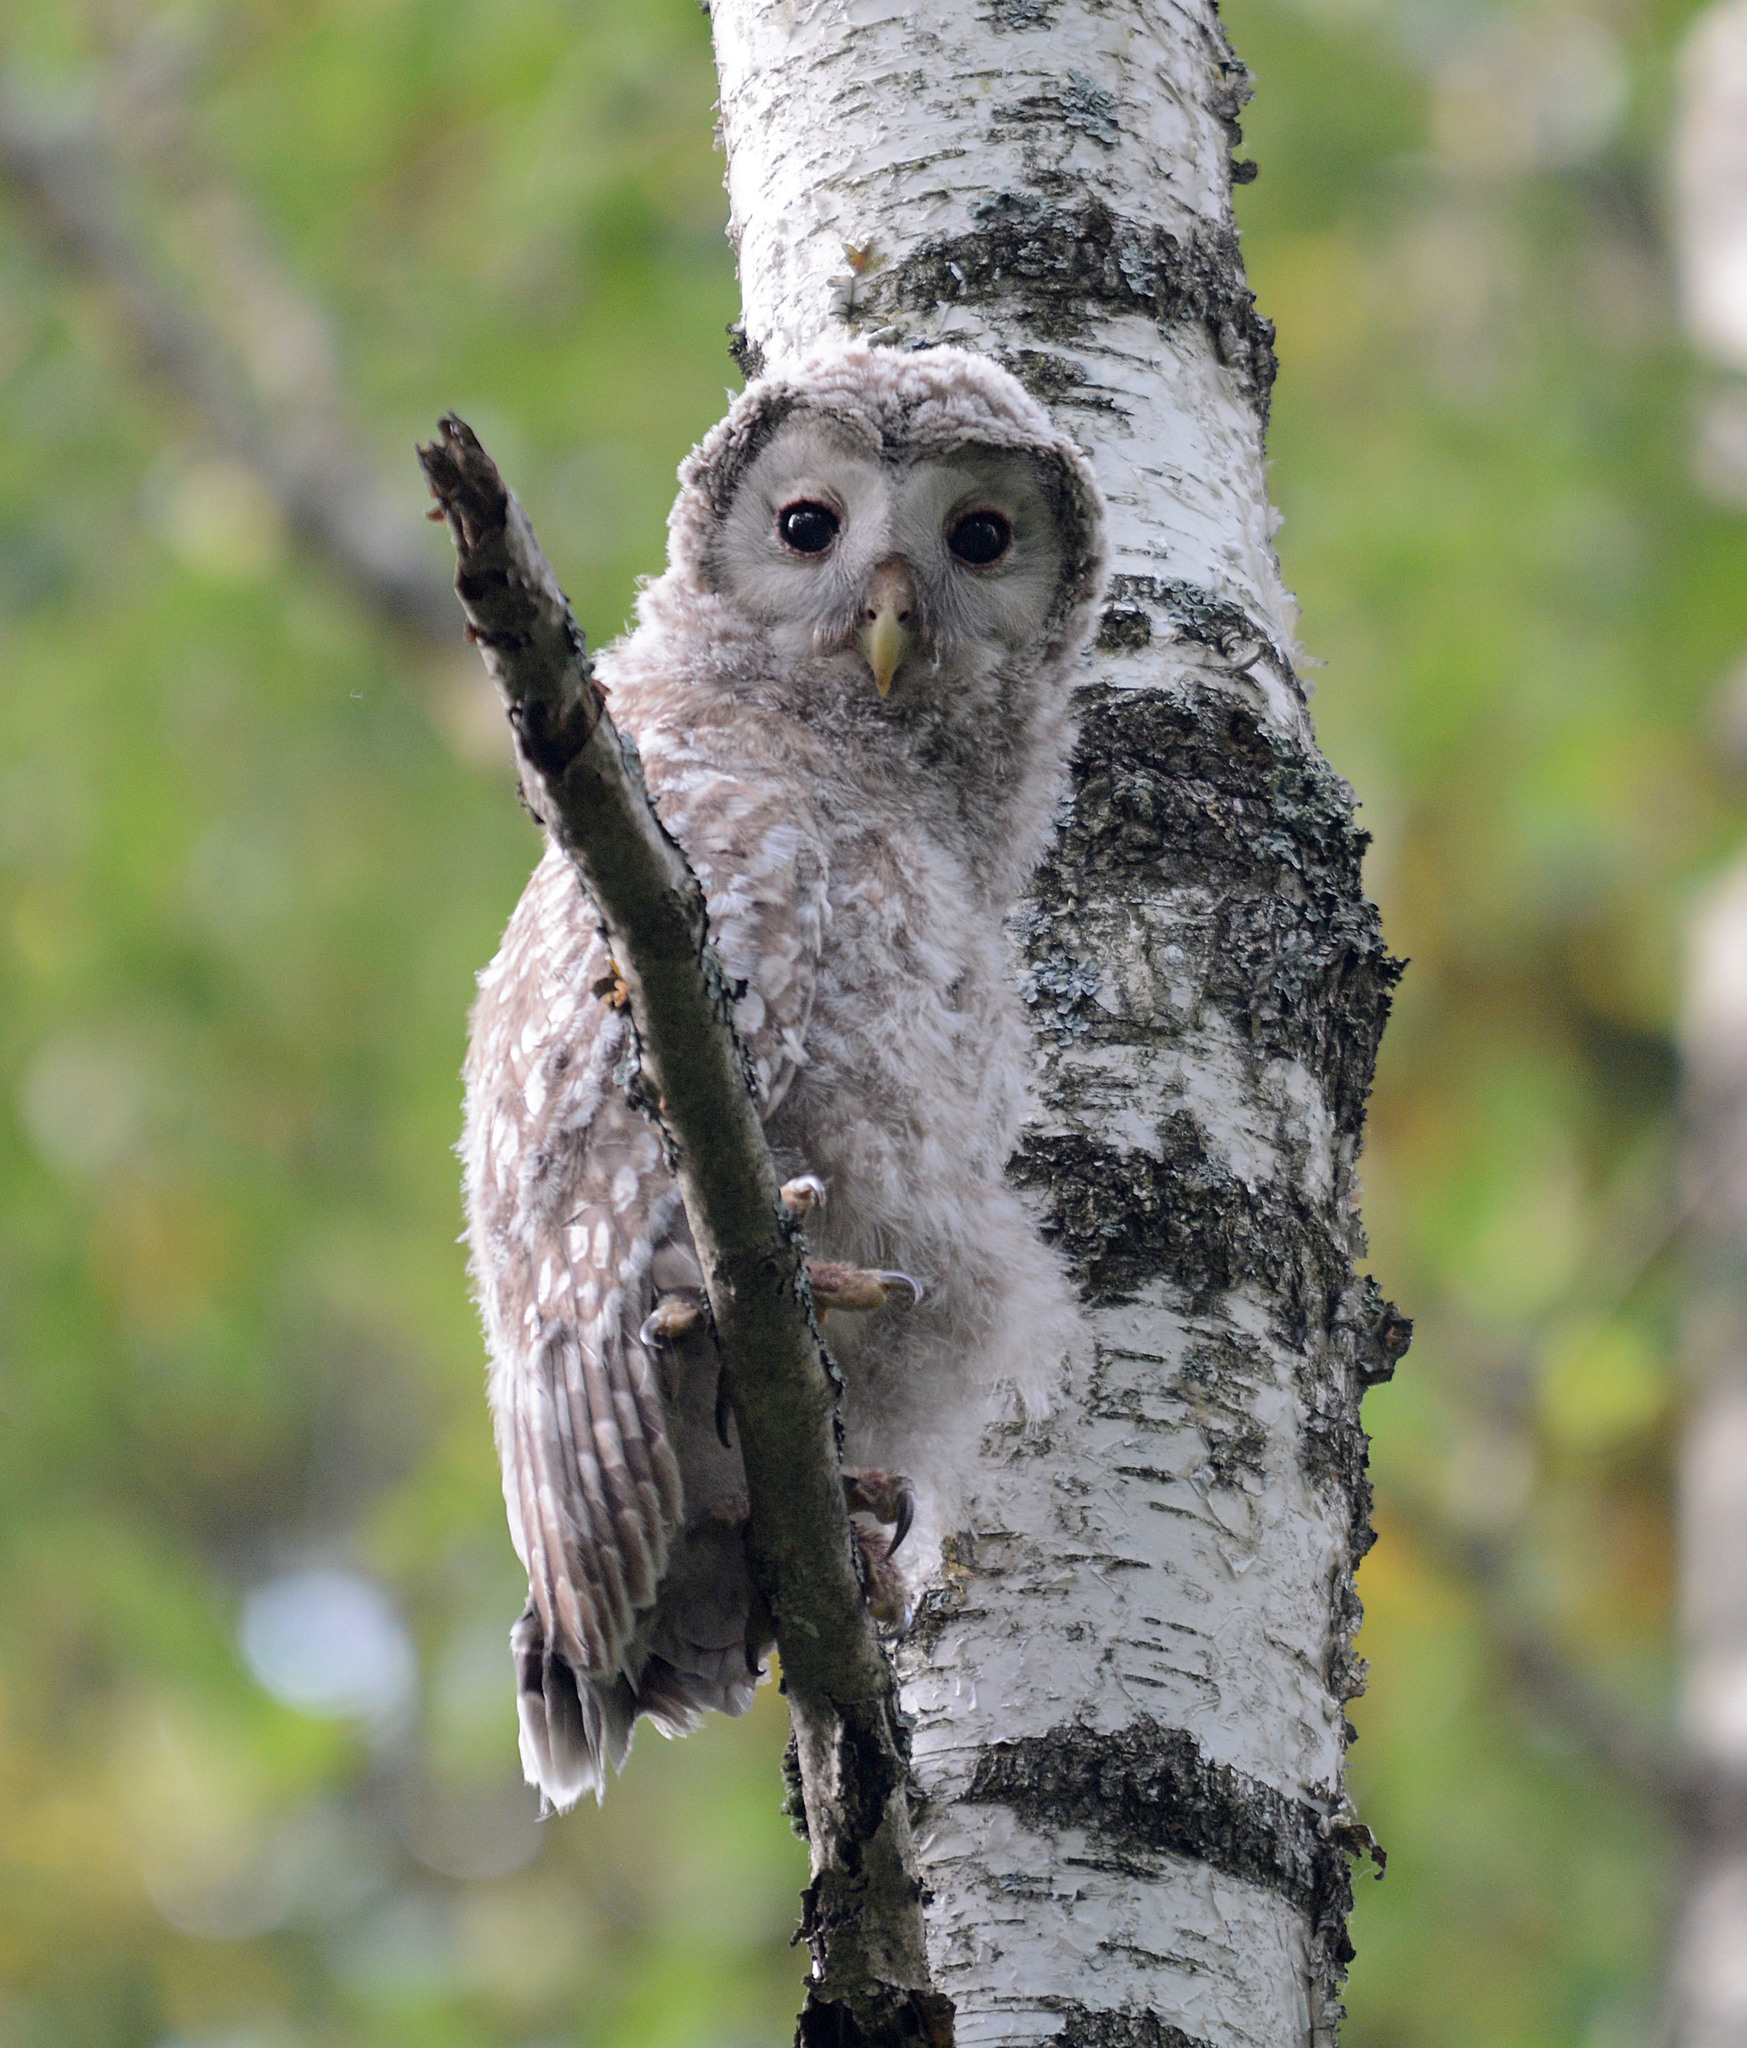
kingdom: Animalia
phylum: Chordata
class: Aves
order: Strigiformes
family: Strigidae
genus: Strix
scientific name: Strix uralensis
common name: Ural owl
